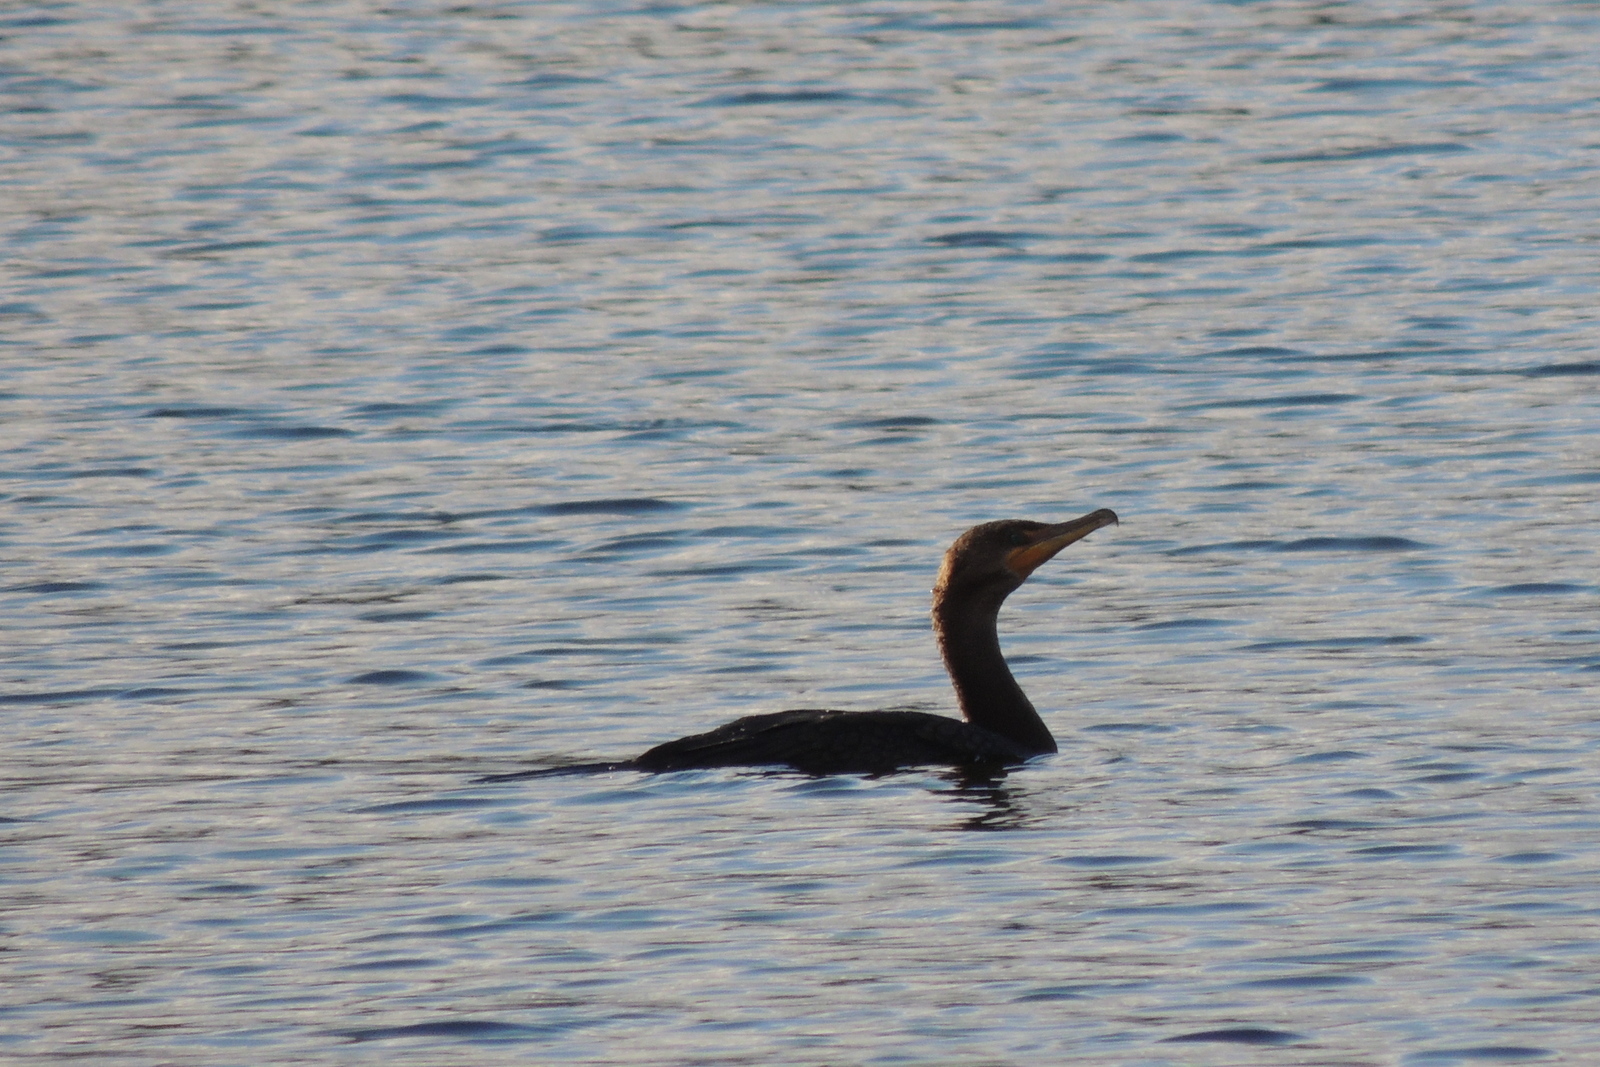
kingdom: Animalia
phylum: Chordata
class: Aves
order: Suliformes
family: Phalacrocoracidae
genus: Phalacrocorax
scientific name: Phalacrocorax auritus
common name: Double-crested cormorant
